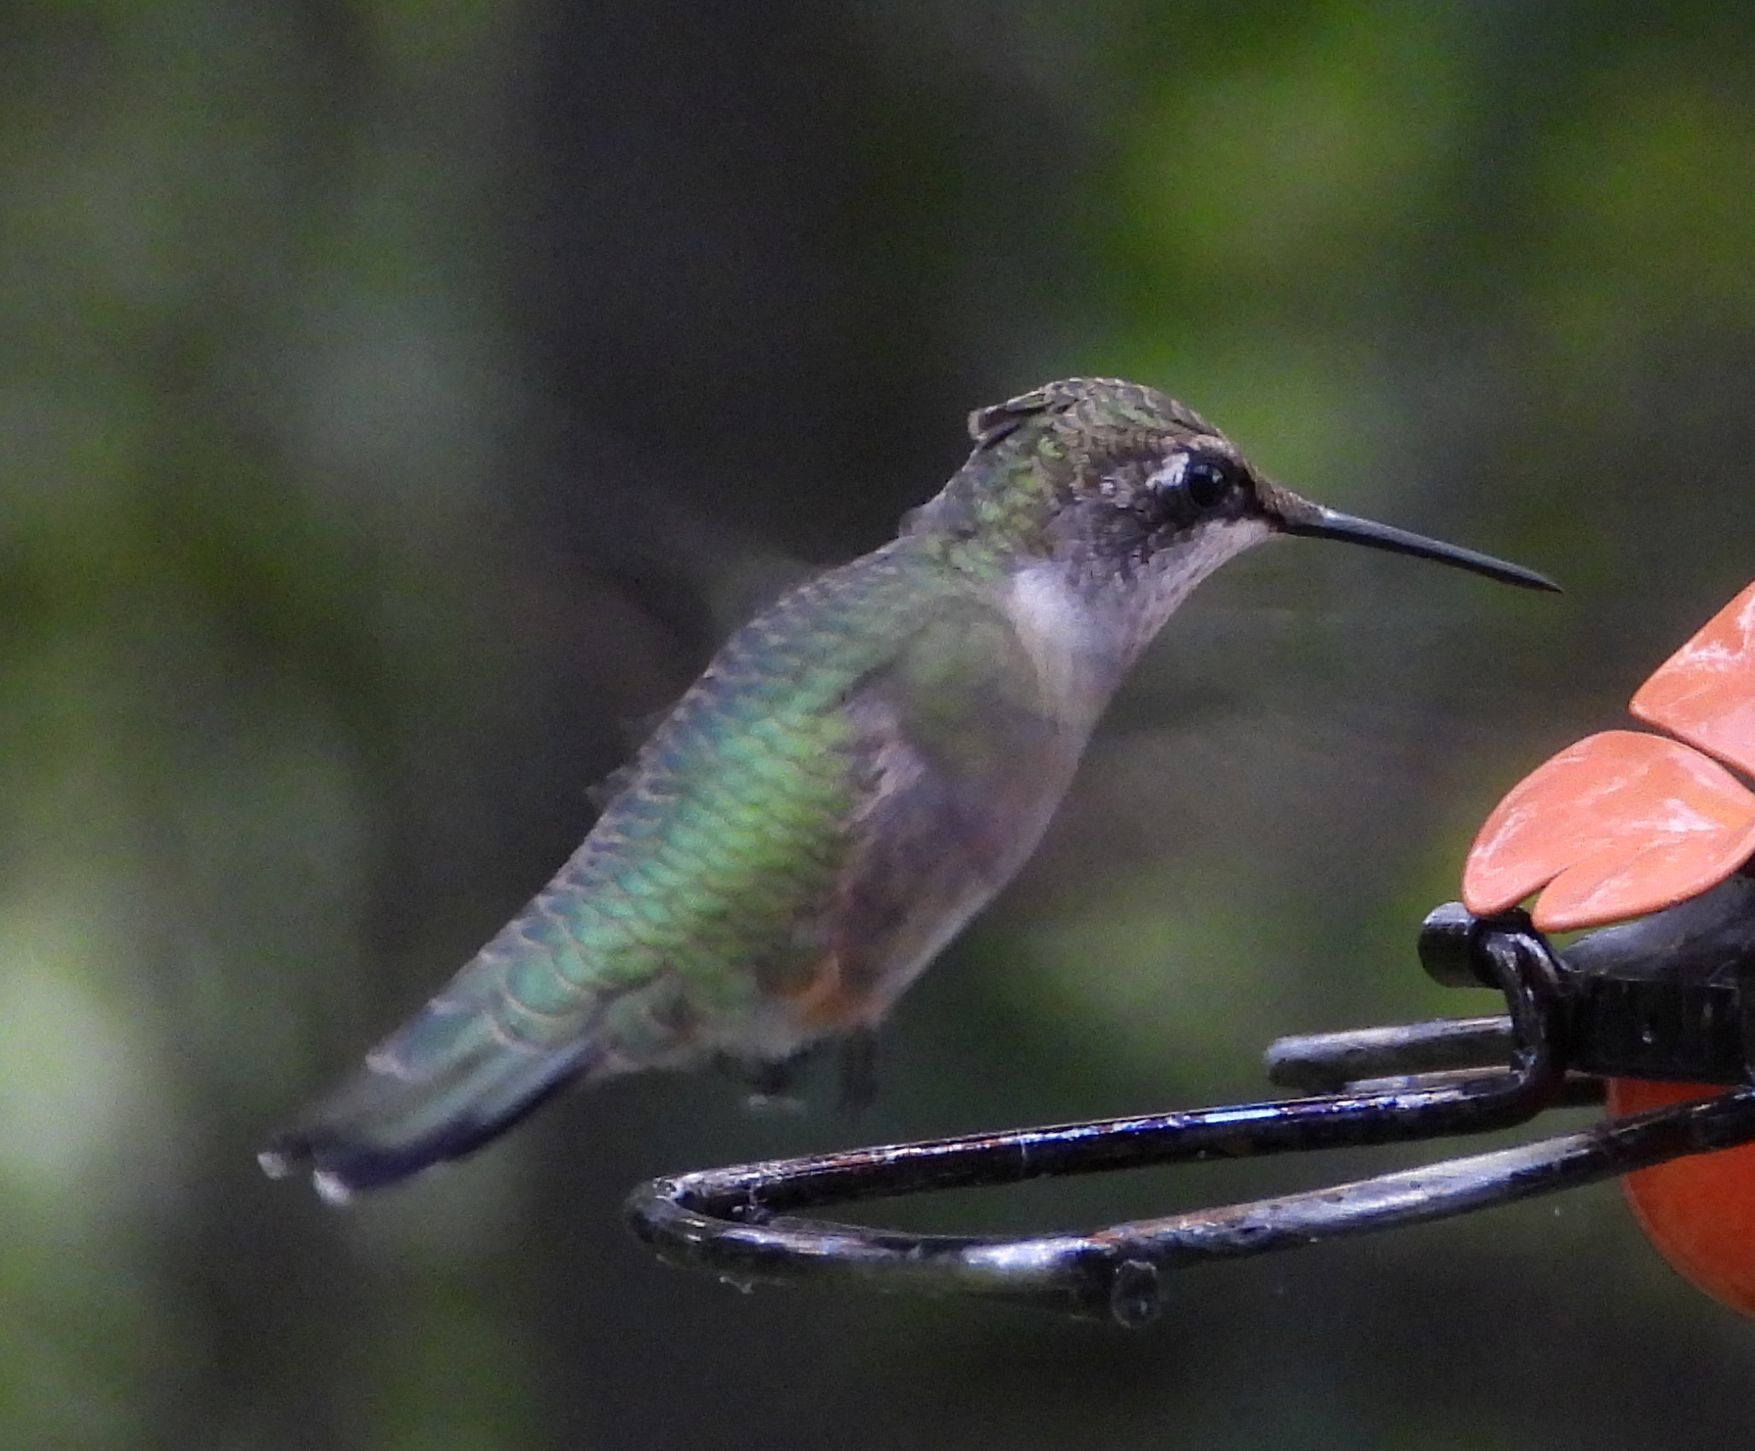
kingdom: Animalia
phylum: Chordata
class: Aves
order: Apodiformes
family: Trochilidae
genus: Archilochus
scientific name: Archilochus colubris
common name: Ruby-throated hummingbird
